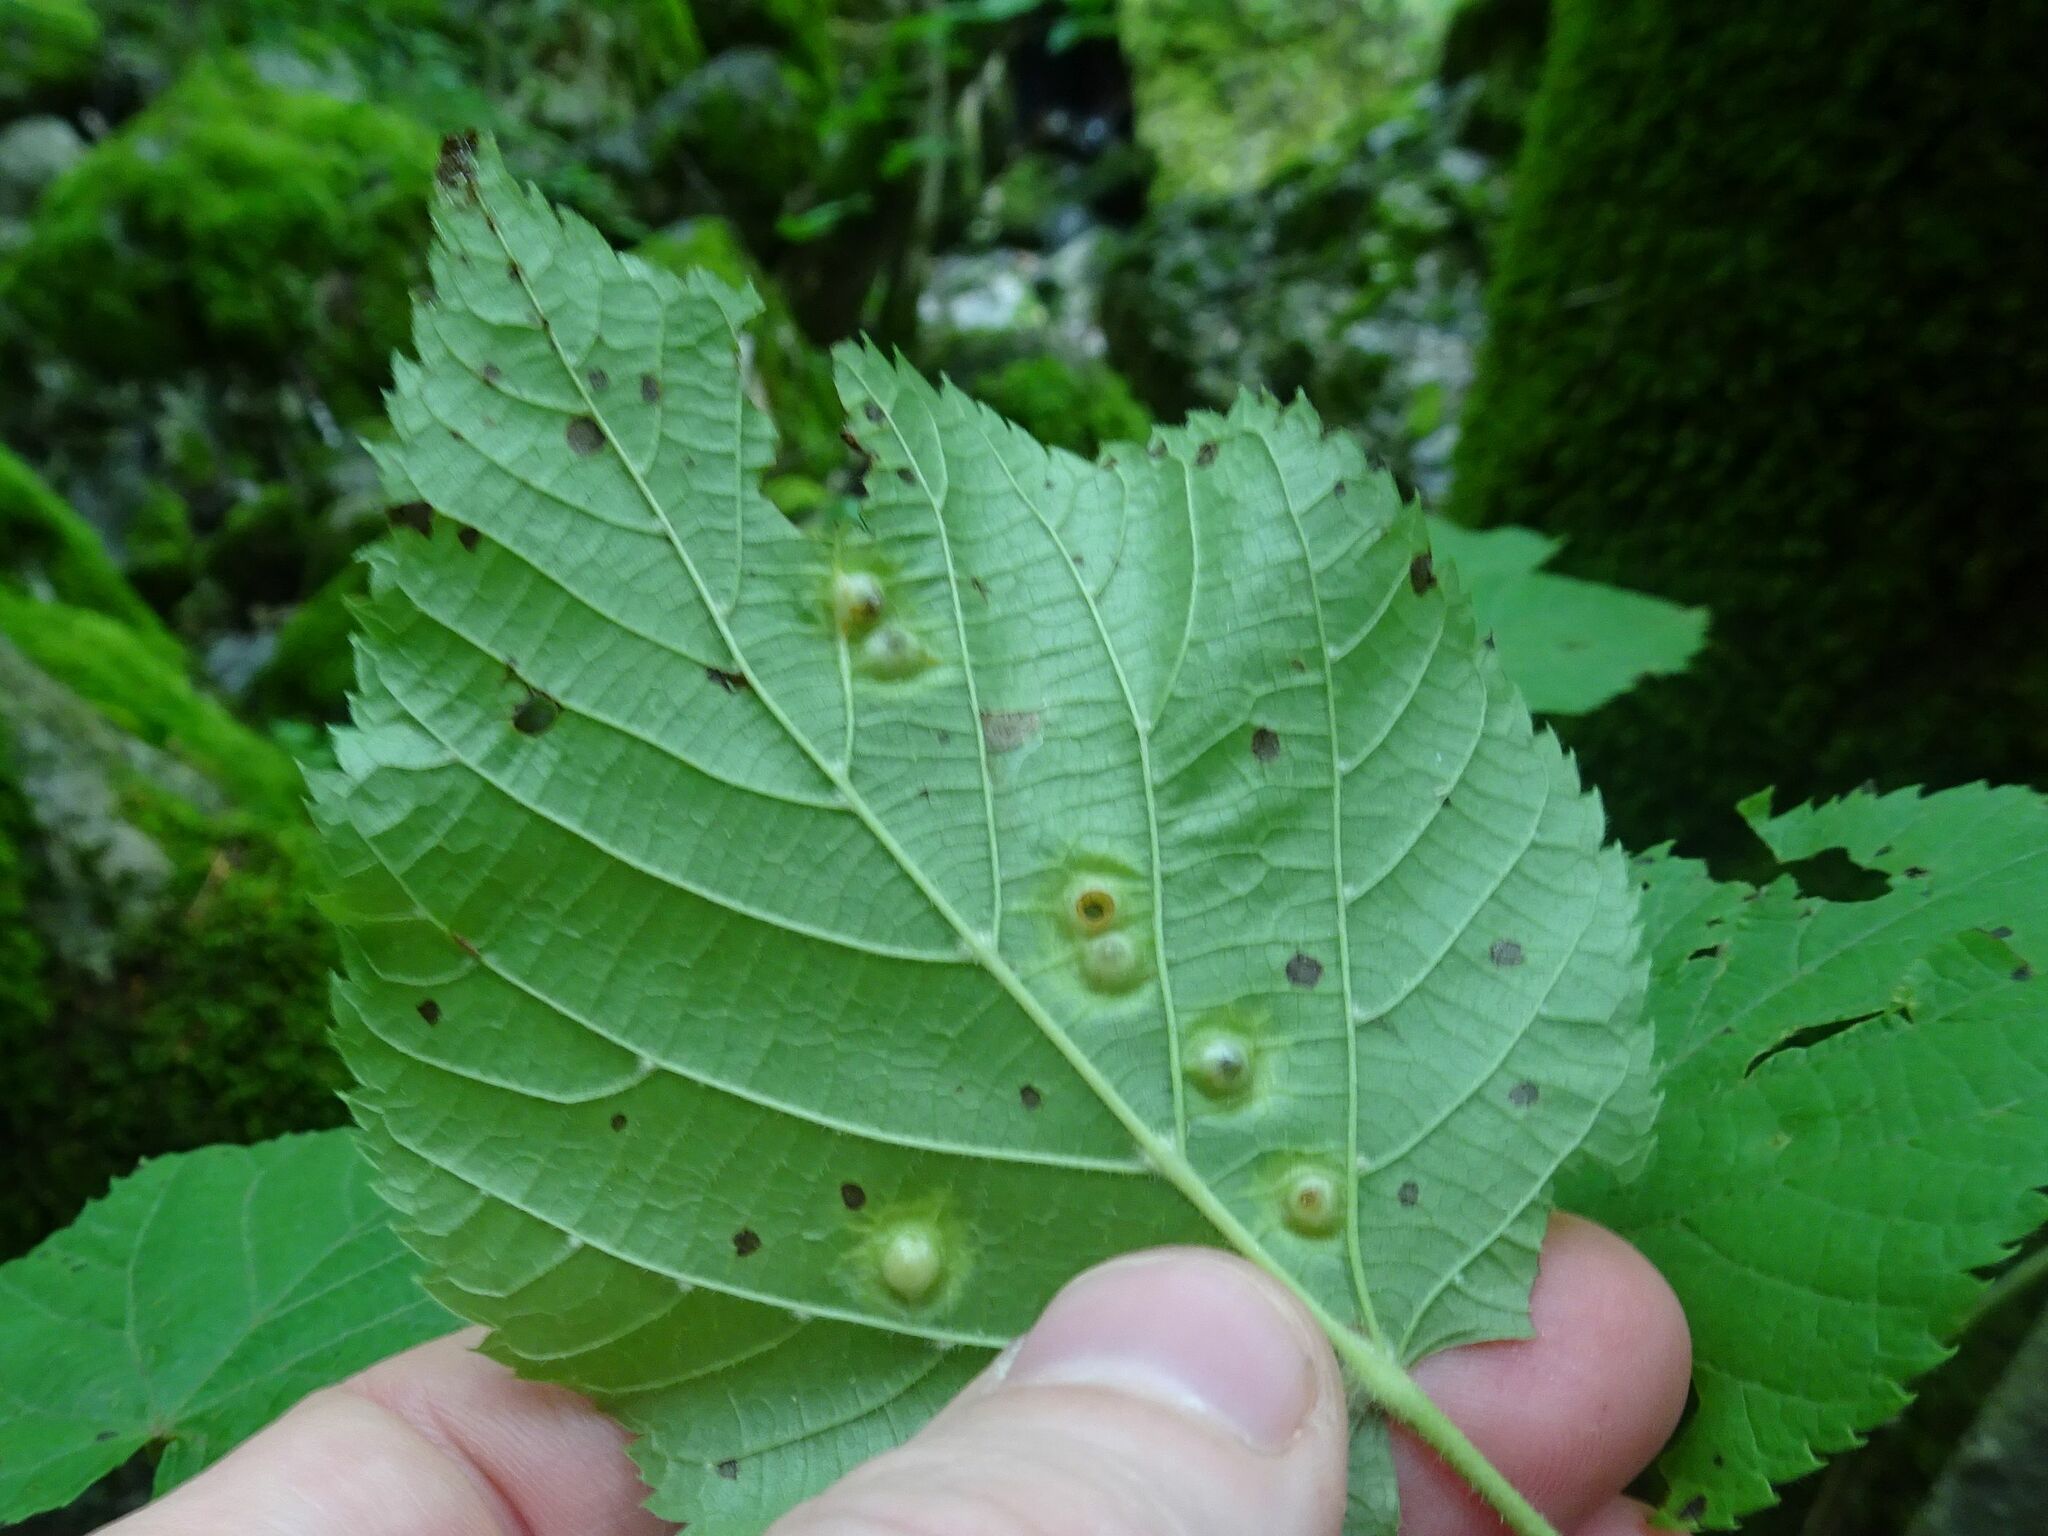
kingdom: Animalia
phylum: Arthropoda
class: Insecta
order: Diptera
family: Cecidomyiidae
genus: Didymomyia
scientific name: Didymomyia tiliacea
